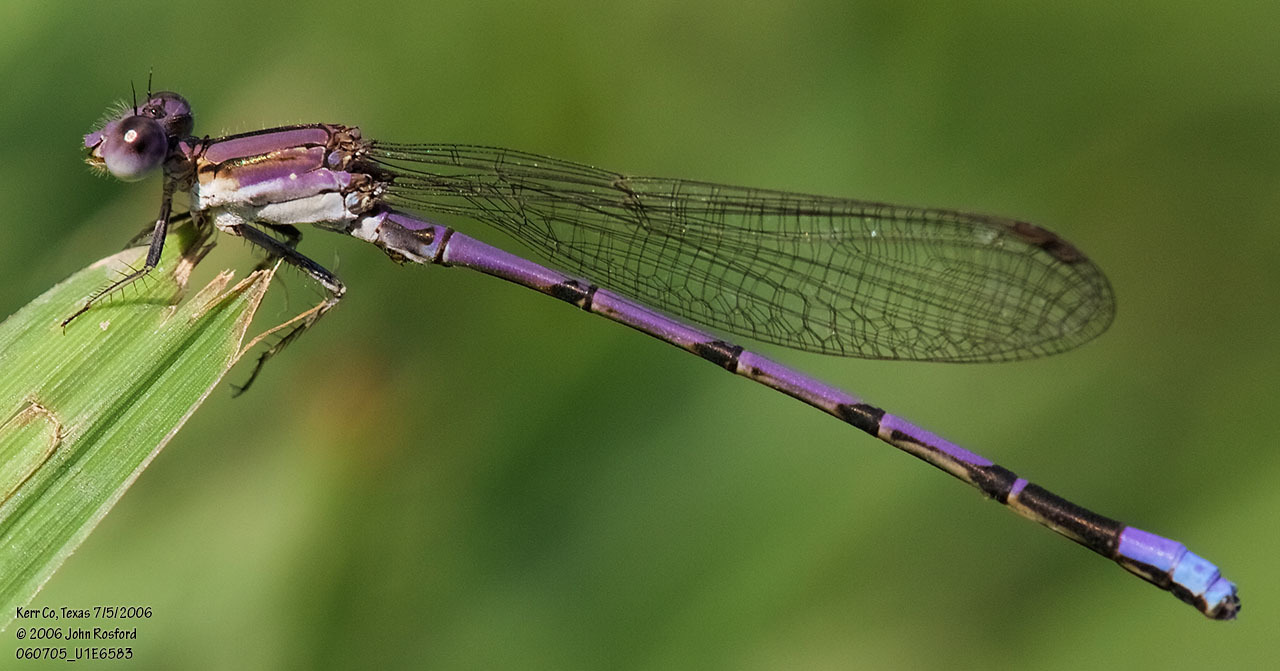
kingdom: Animalia
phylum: Arthropoda
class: Insecta
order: Odonata
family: Coenagrionidae
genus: Argia
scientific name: Argia fumipennis
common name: Variable dancer
